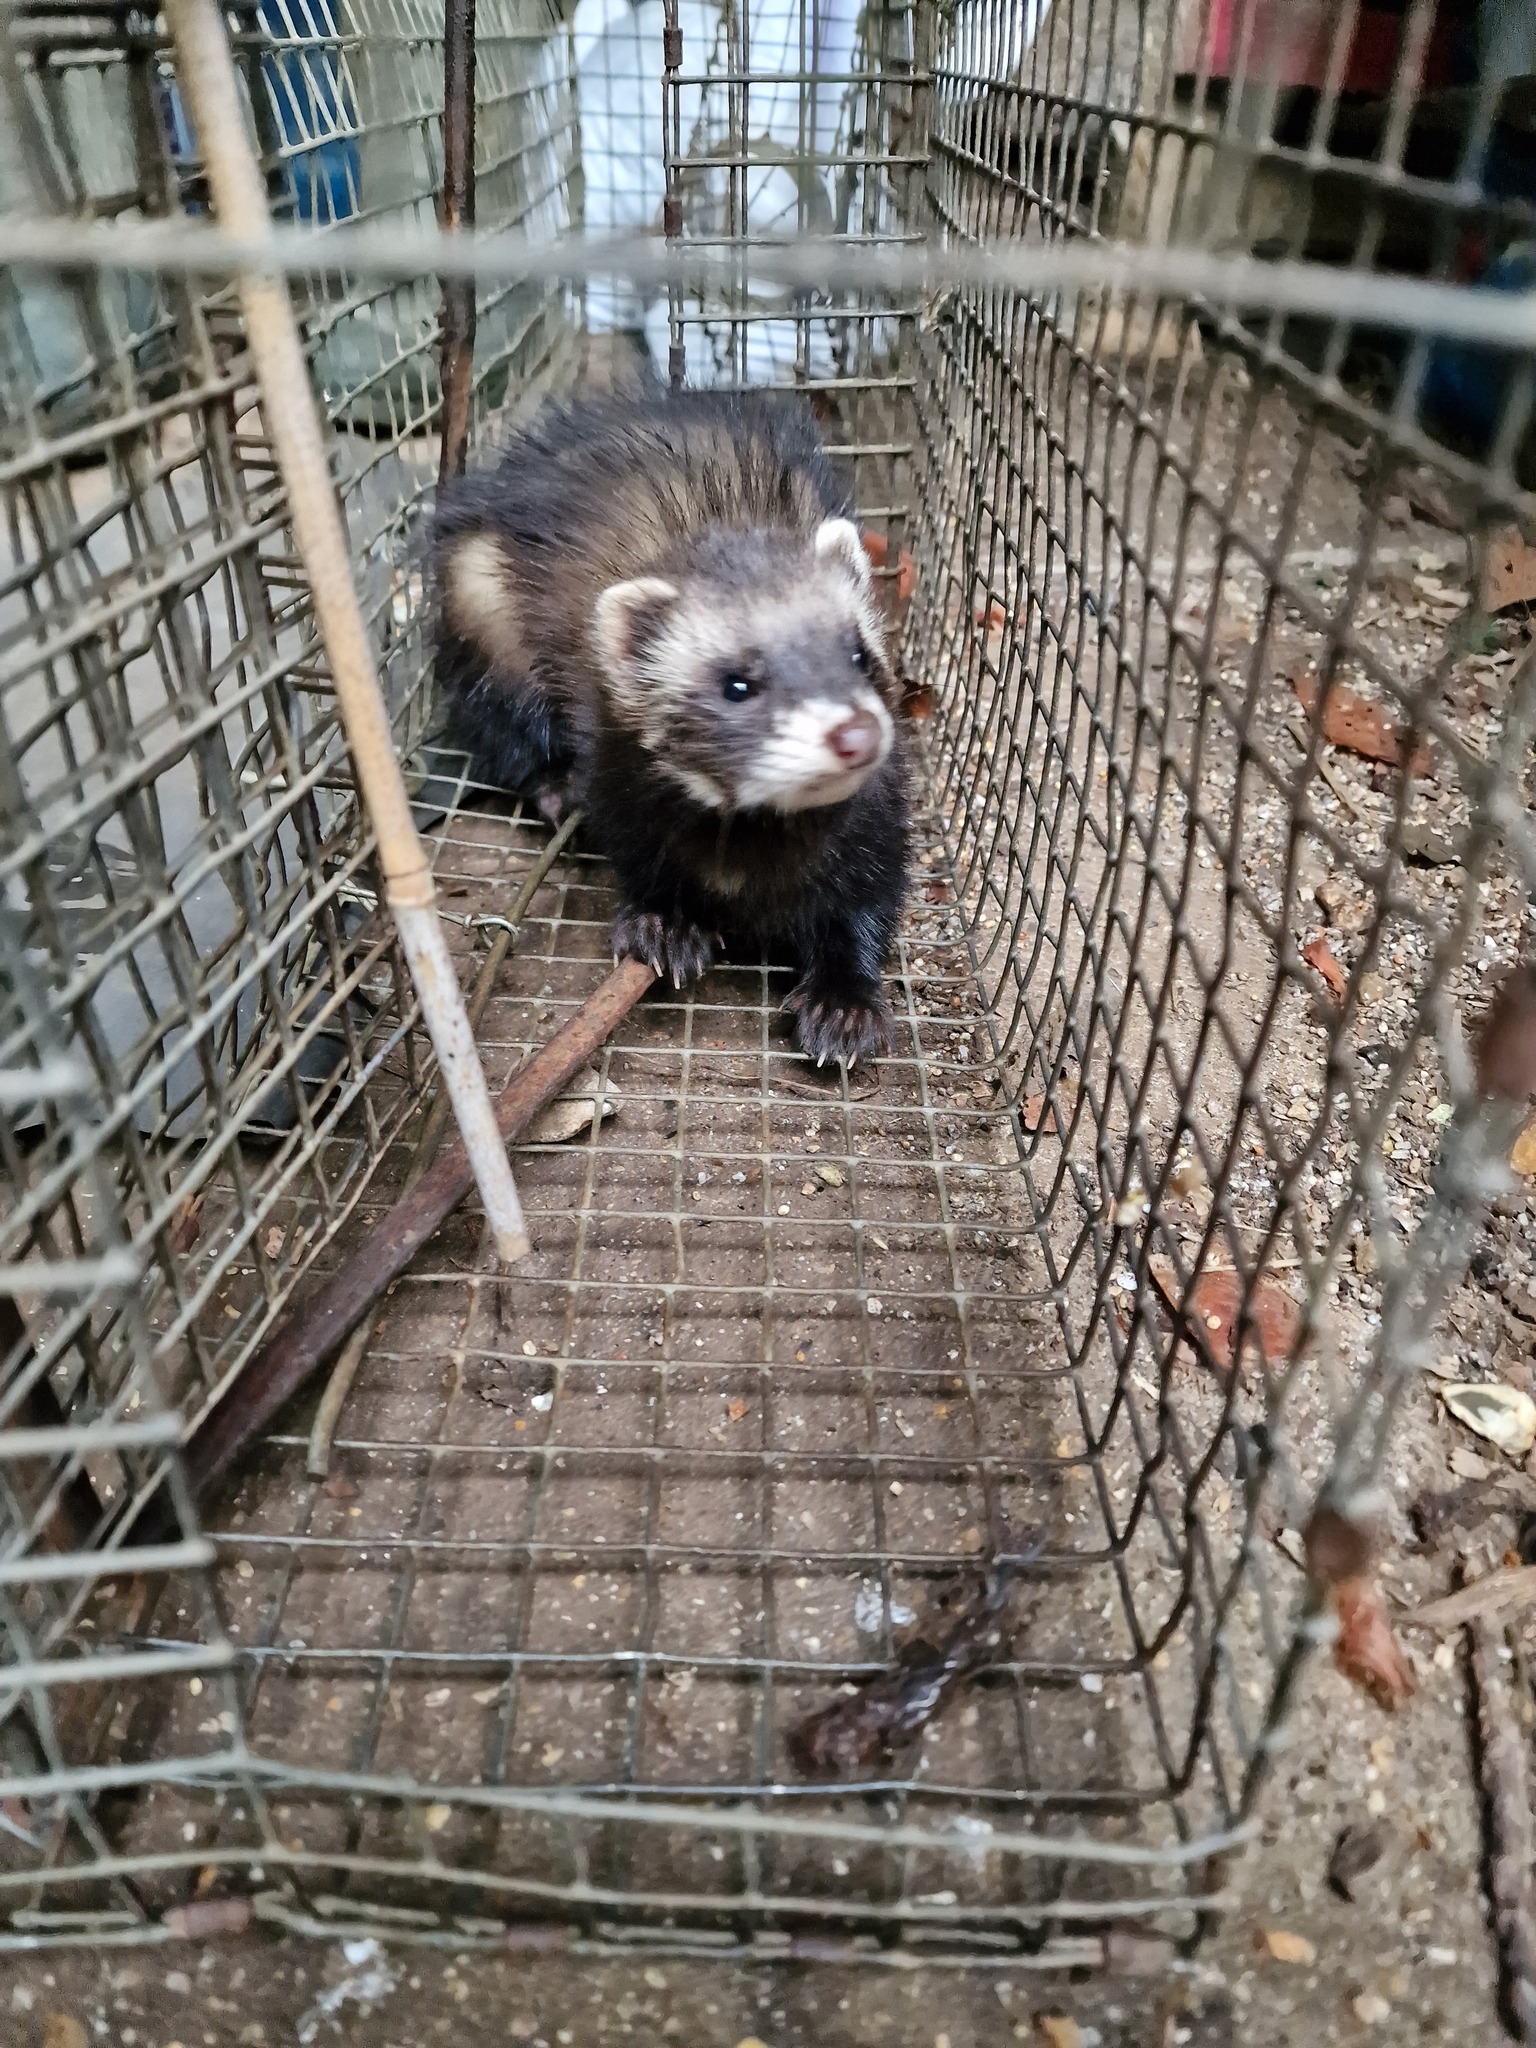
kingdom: Animalia
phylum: Chordata
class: Mammalia
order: Carnivora
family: Mustelidae
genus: Mustela
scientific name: Mustela putorius
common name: European polecat
